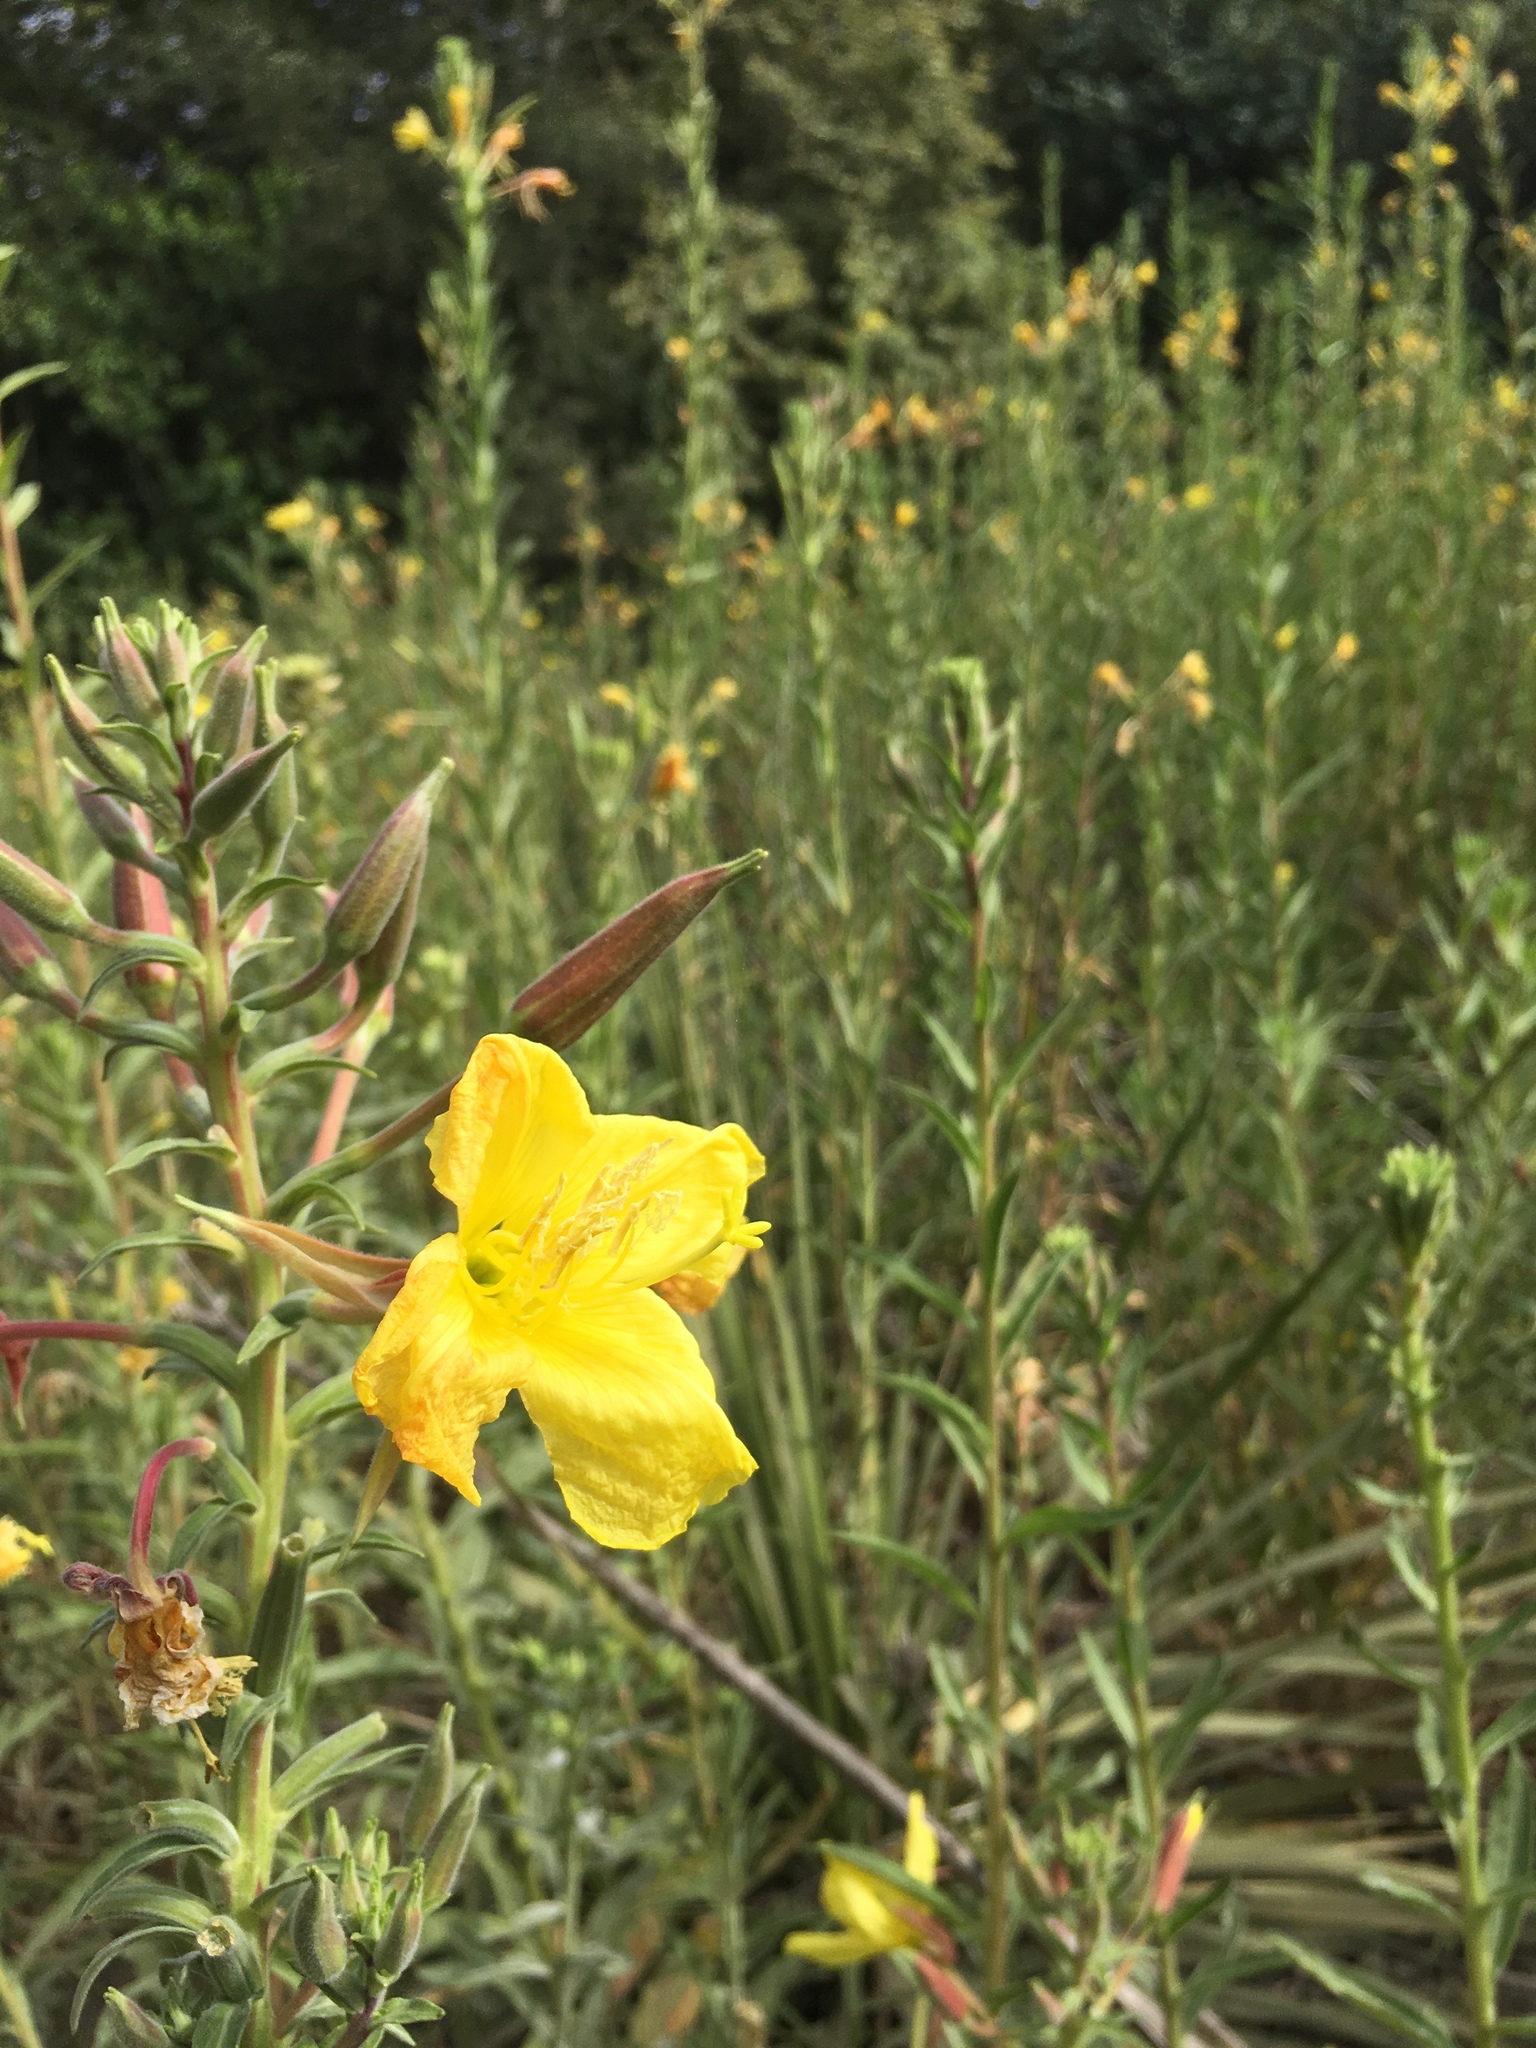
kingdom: Plantae
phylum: Tracheophyta
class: Magnoliopsida
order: Myrtales
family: Onagraceae
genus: Oenothera
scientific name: Oenothera elata
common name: Hooker's evening-primrose
